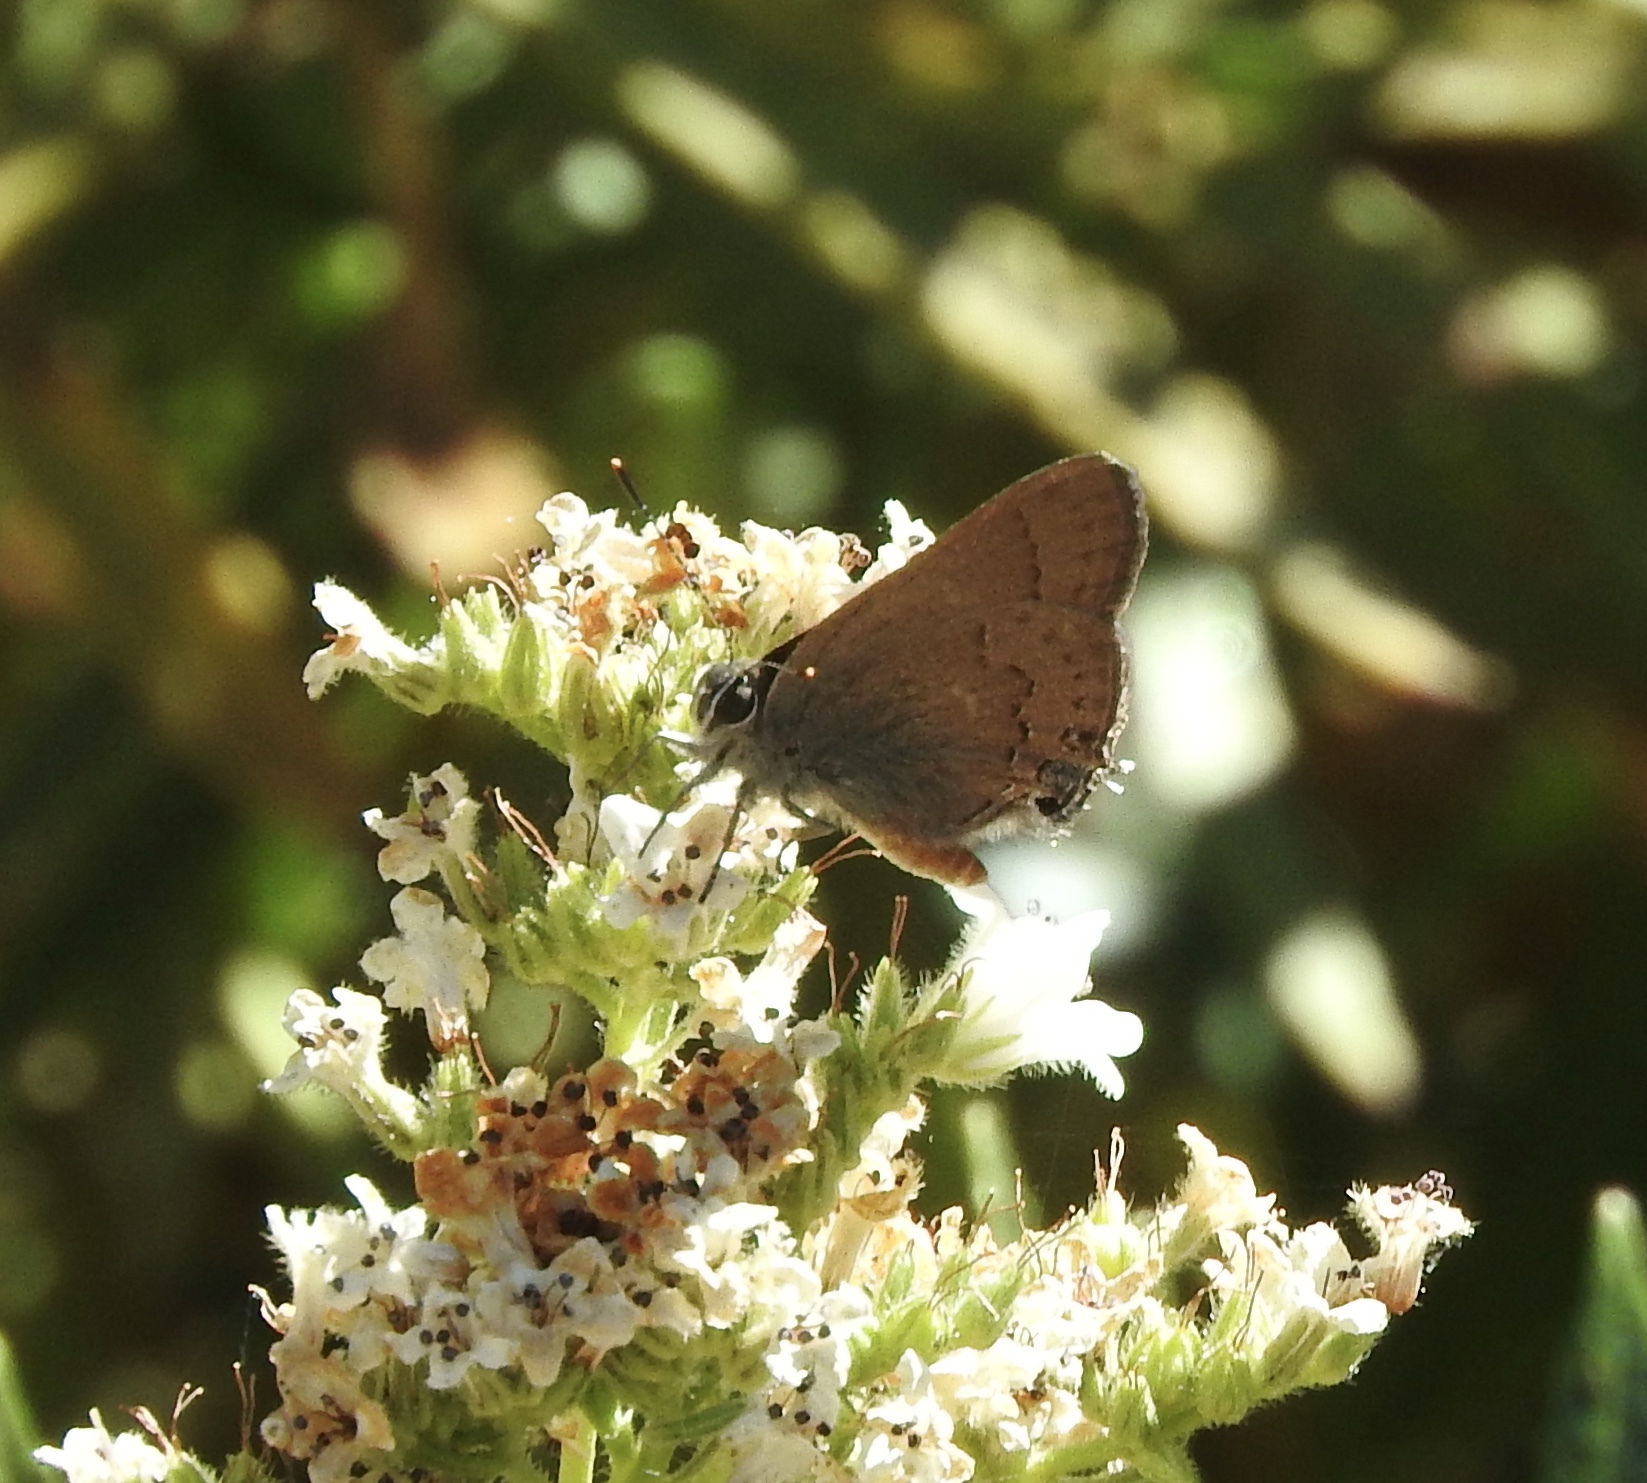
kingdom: Animalia
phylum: Arthropoda
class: Insecta
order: Lepidoptera
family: Lycaenidae
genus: Strymon
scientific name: Strymon saepium
